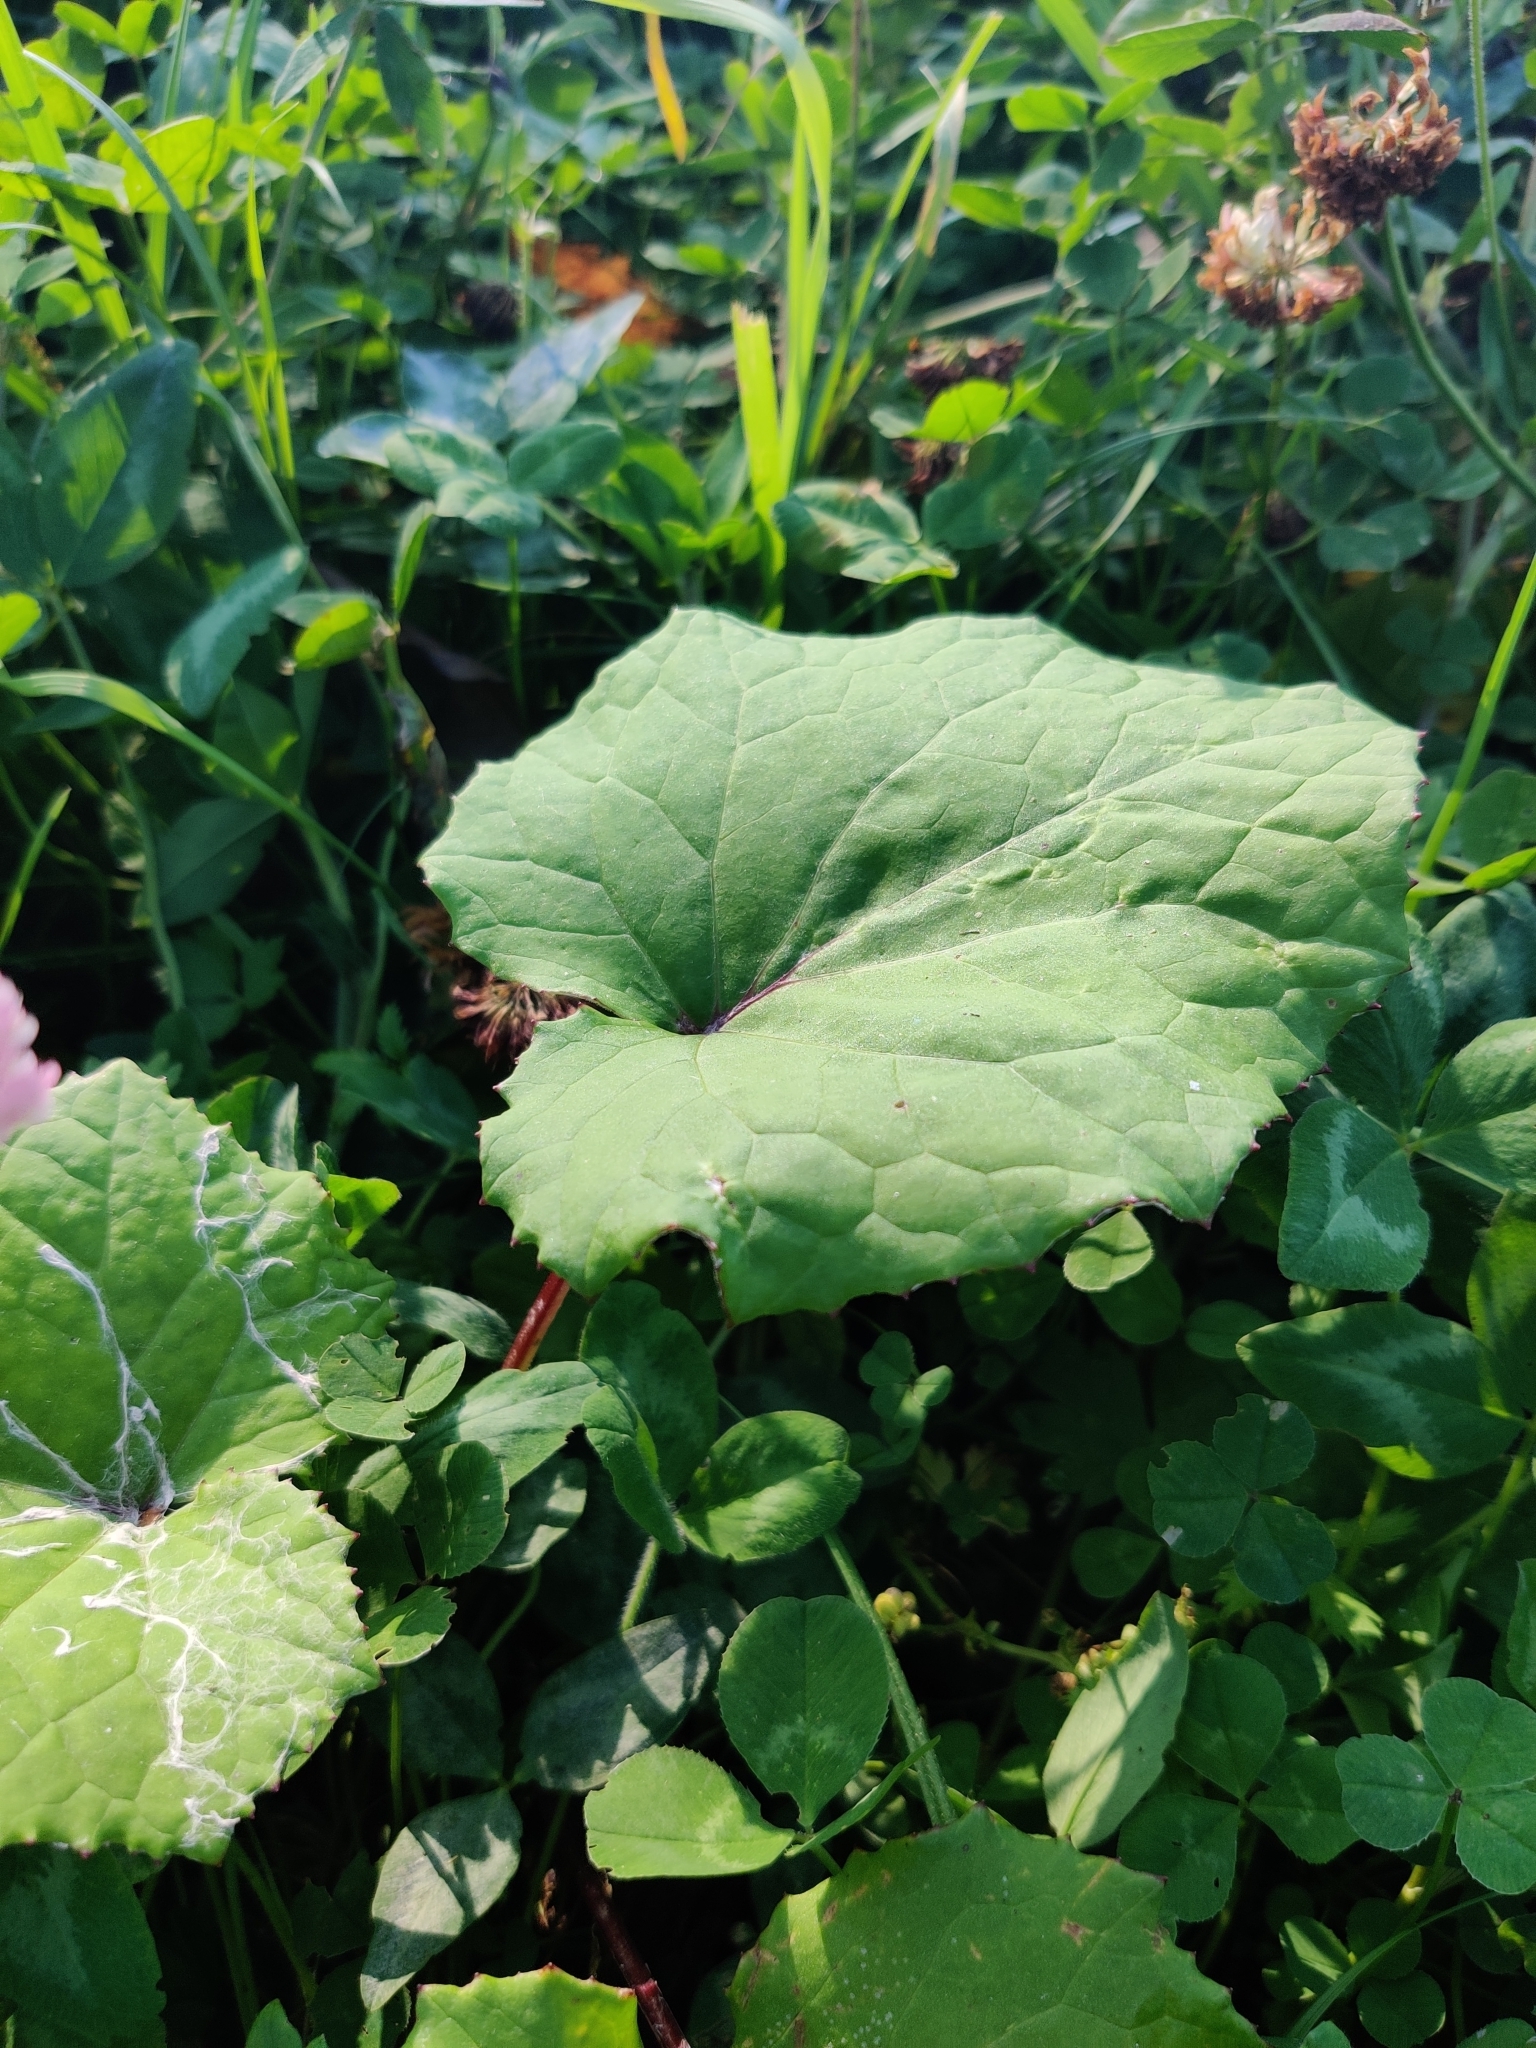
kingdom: Plantae
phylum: Tracheophyta
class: Magnoliopsida
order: Asterales
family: Asteraceae
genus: Tussilago
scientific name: Tussilago farfara
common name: Coltsfoot
